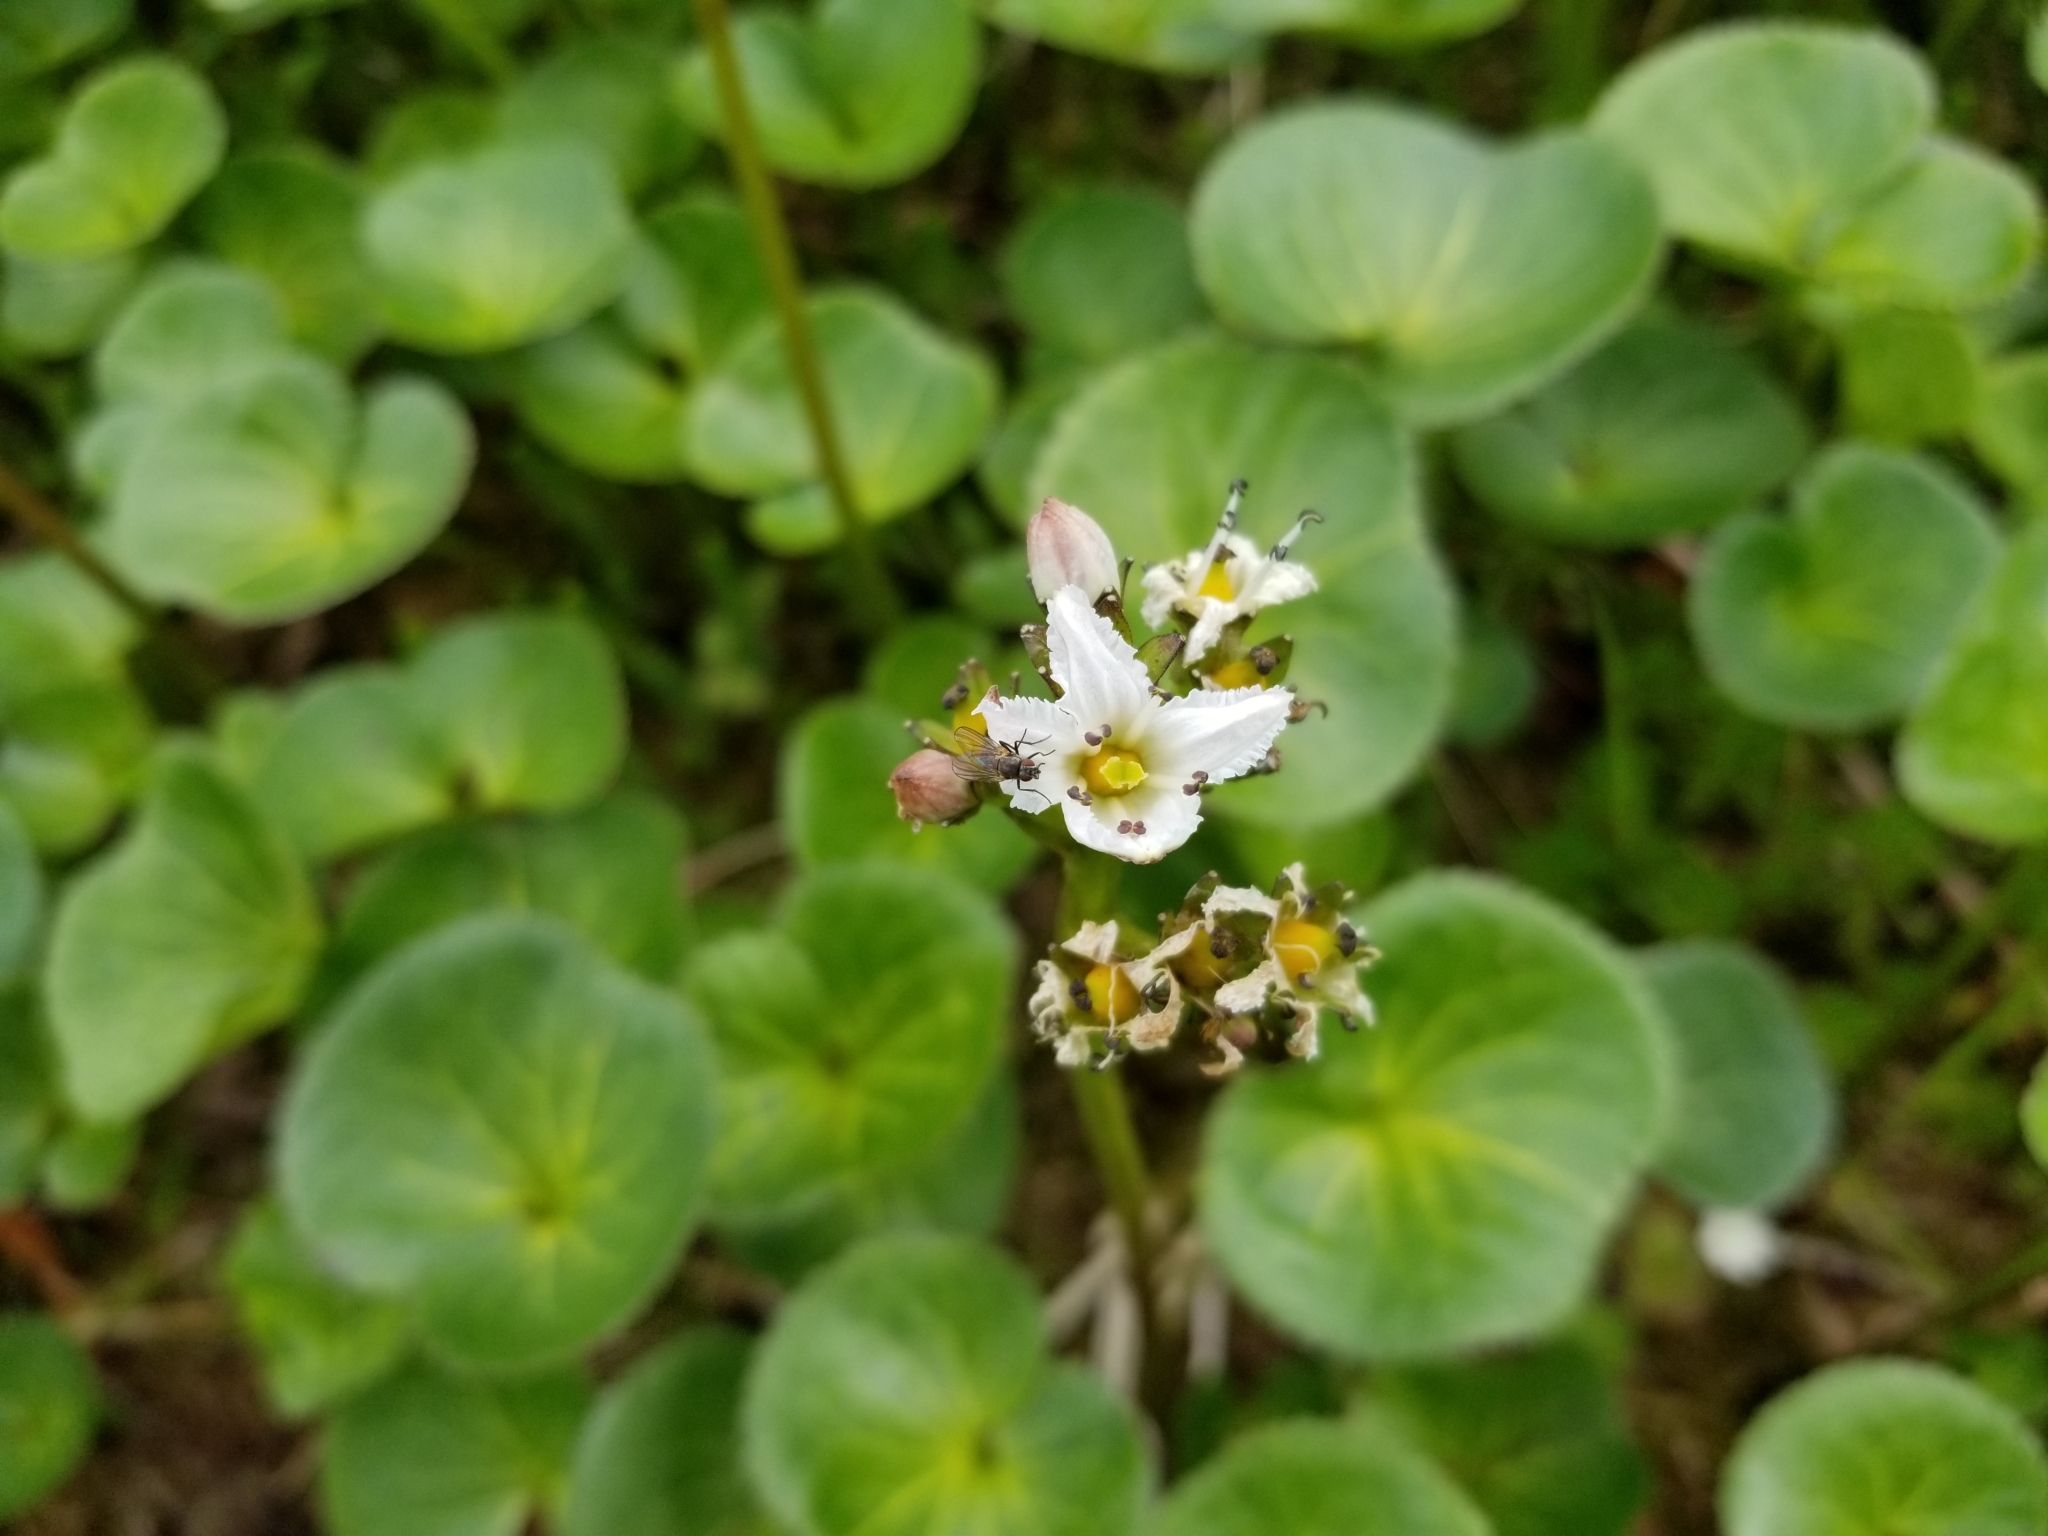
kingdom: Plantae
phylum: Tracheophyta
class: Magnoliopsida
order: Asterales
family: Menyanthaceae
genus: Nephrophyllidium
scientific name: Nephrophyllidium crista-galli
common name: Deer-cabbage
